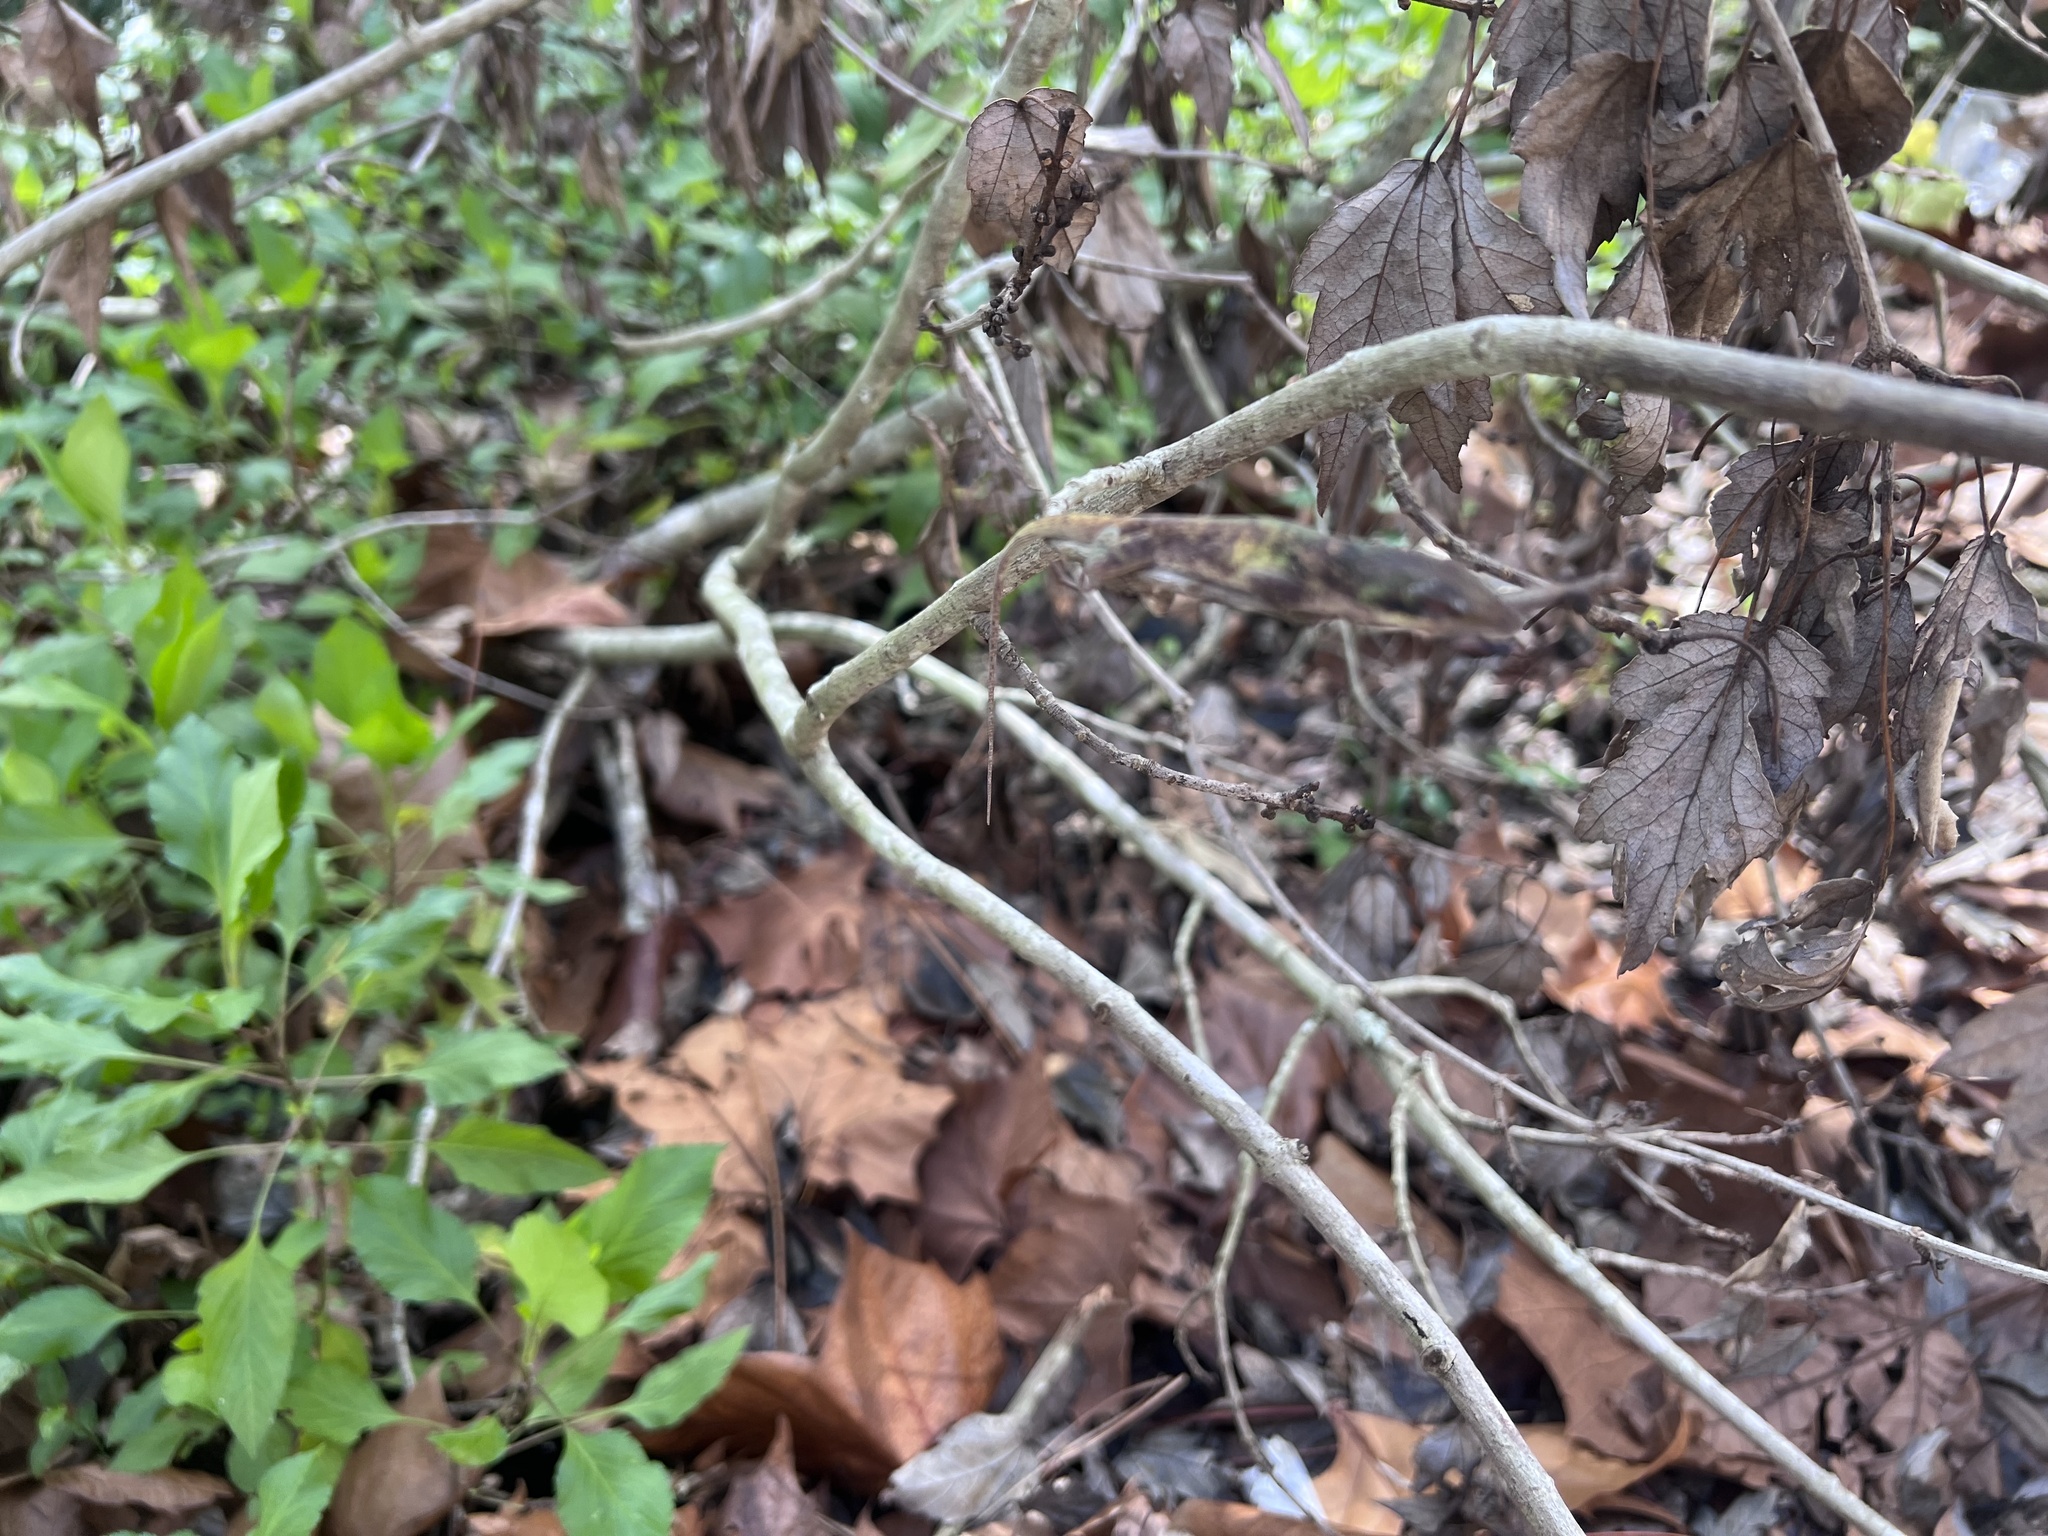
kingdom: Animalia
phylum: Chordata
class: Squamata
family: Dactyloidae
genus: Anolis
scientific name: Anolis carolinensis
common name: Green anole
